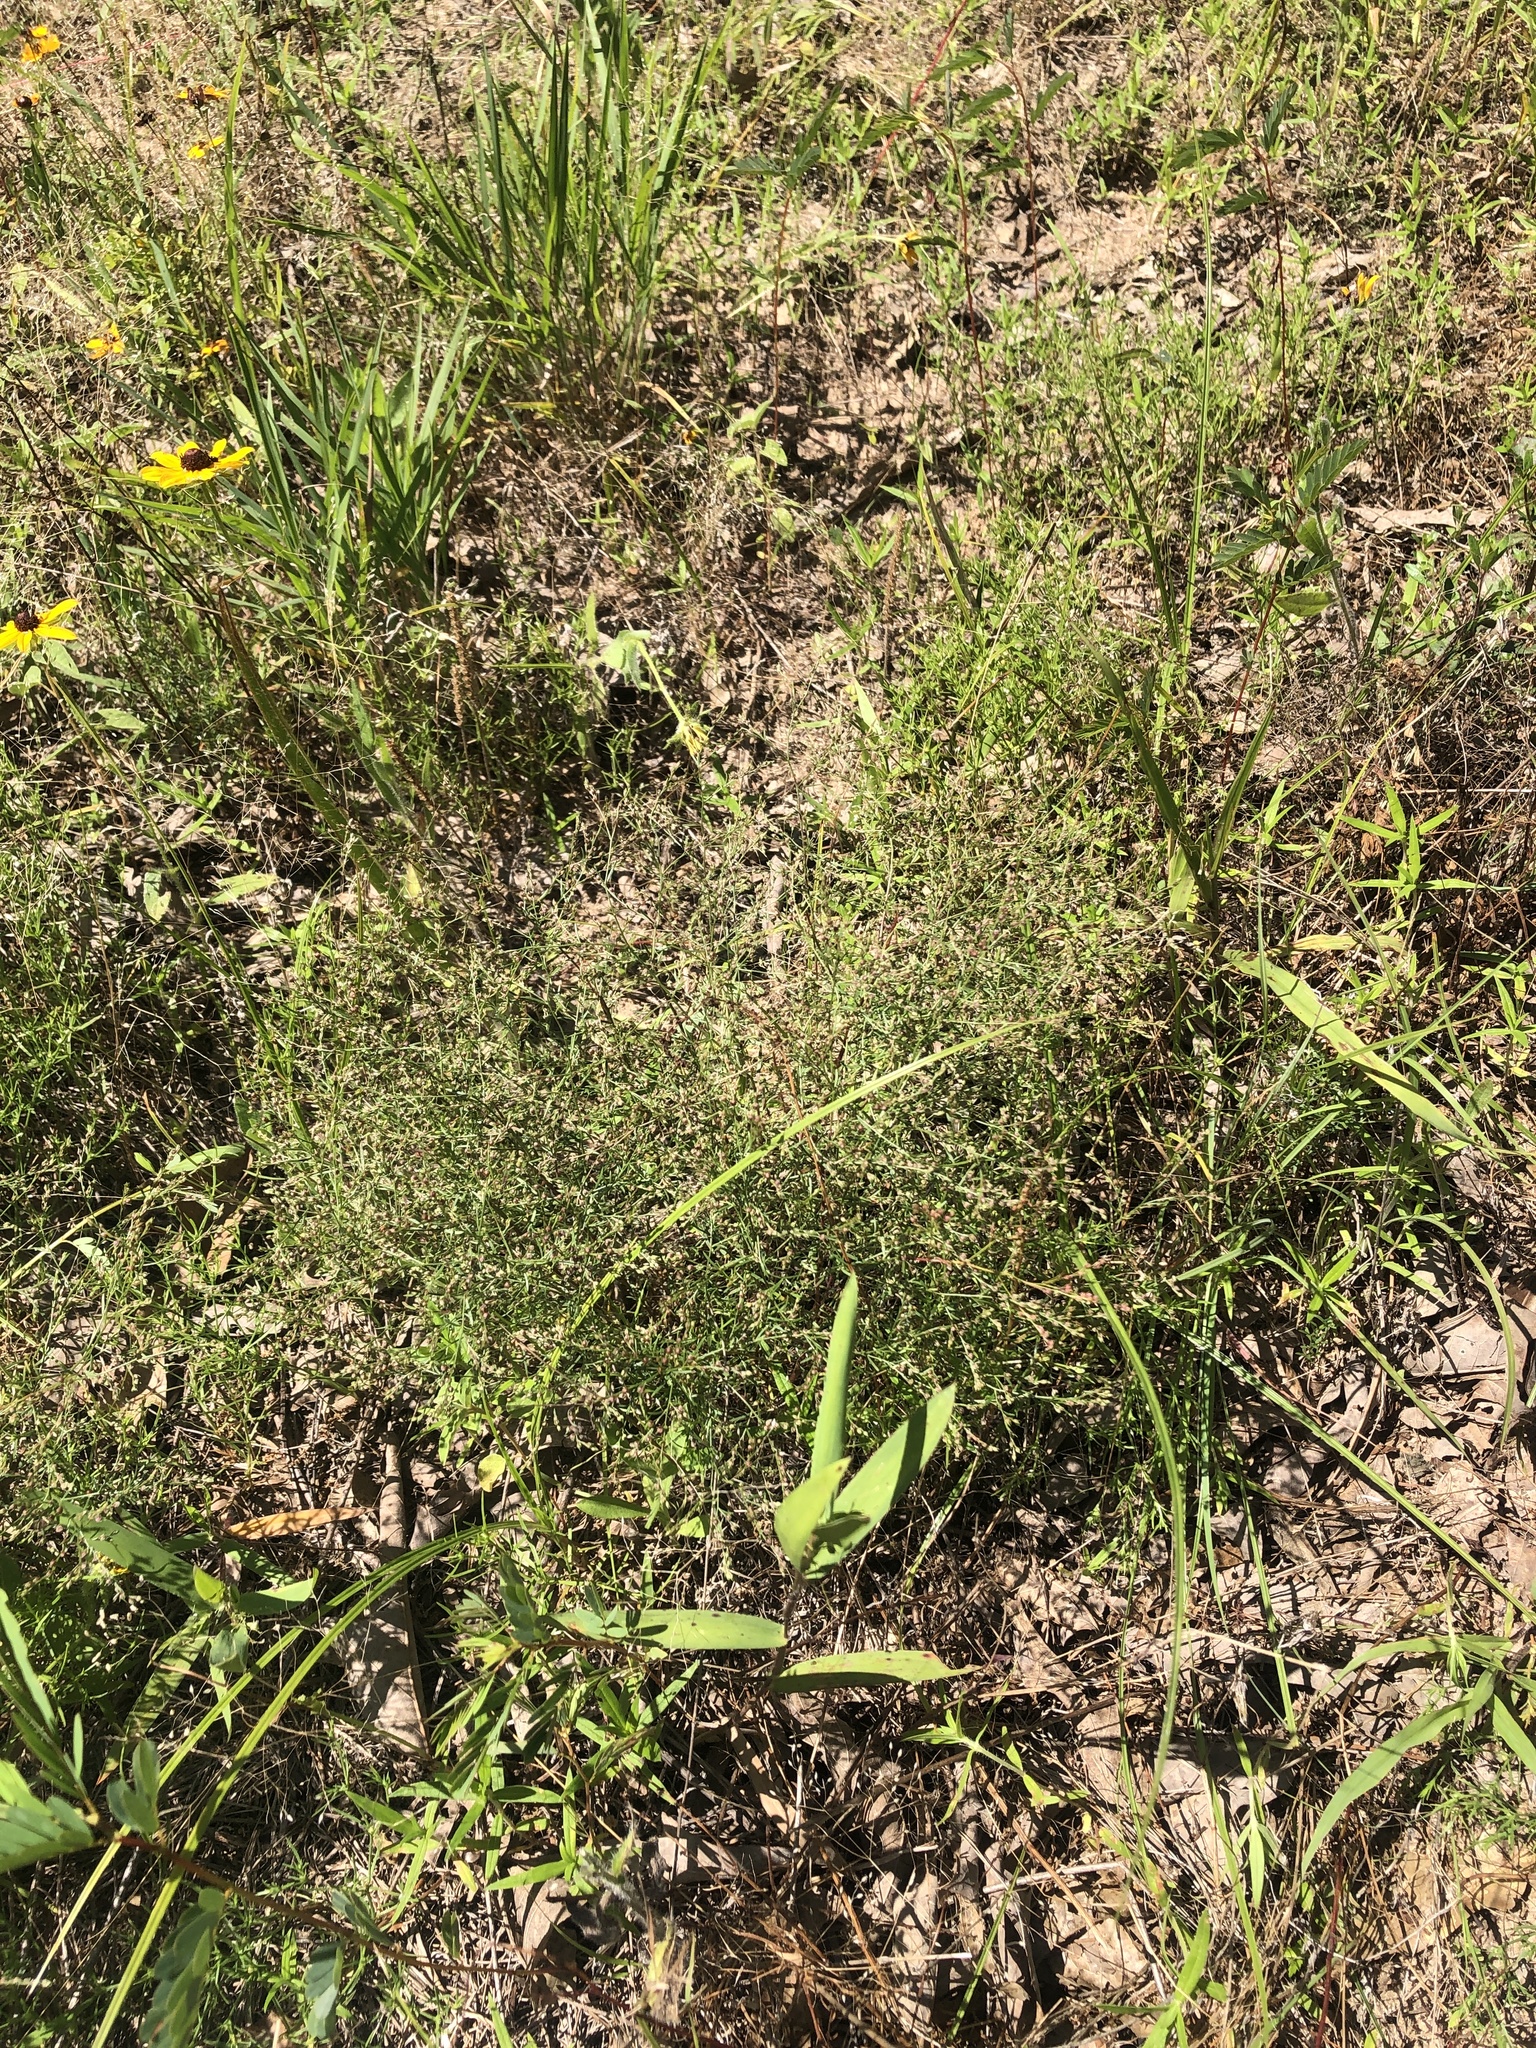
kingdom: Plantae
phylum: Tracheophyta
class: Magnoliopsida
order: Malvales
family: Cistaceae
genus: Lechea
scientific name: Lechea tenuifolia
